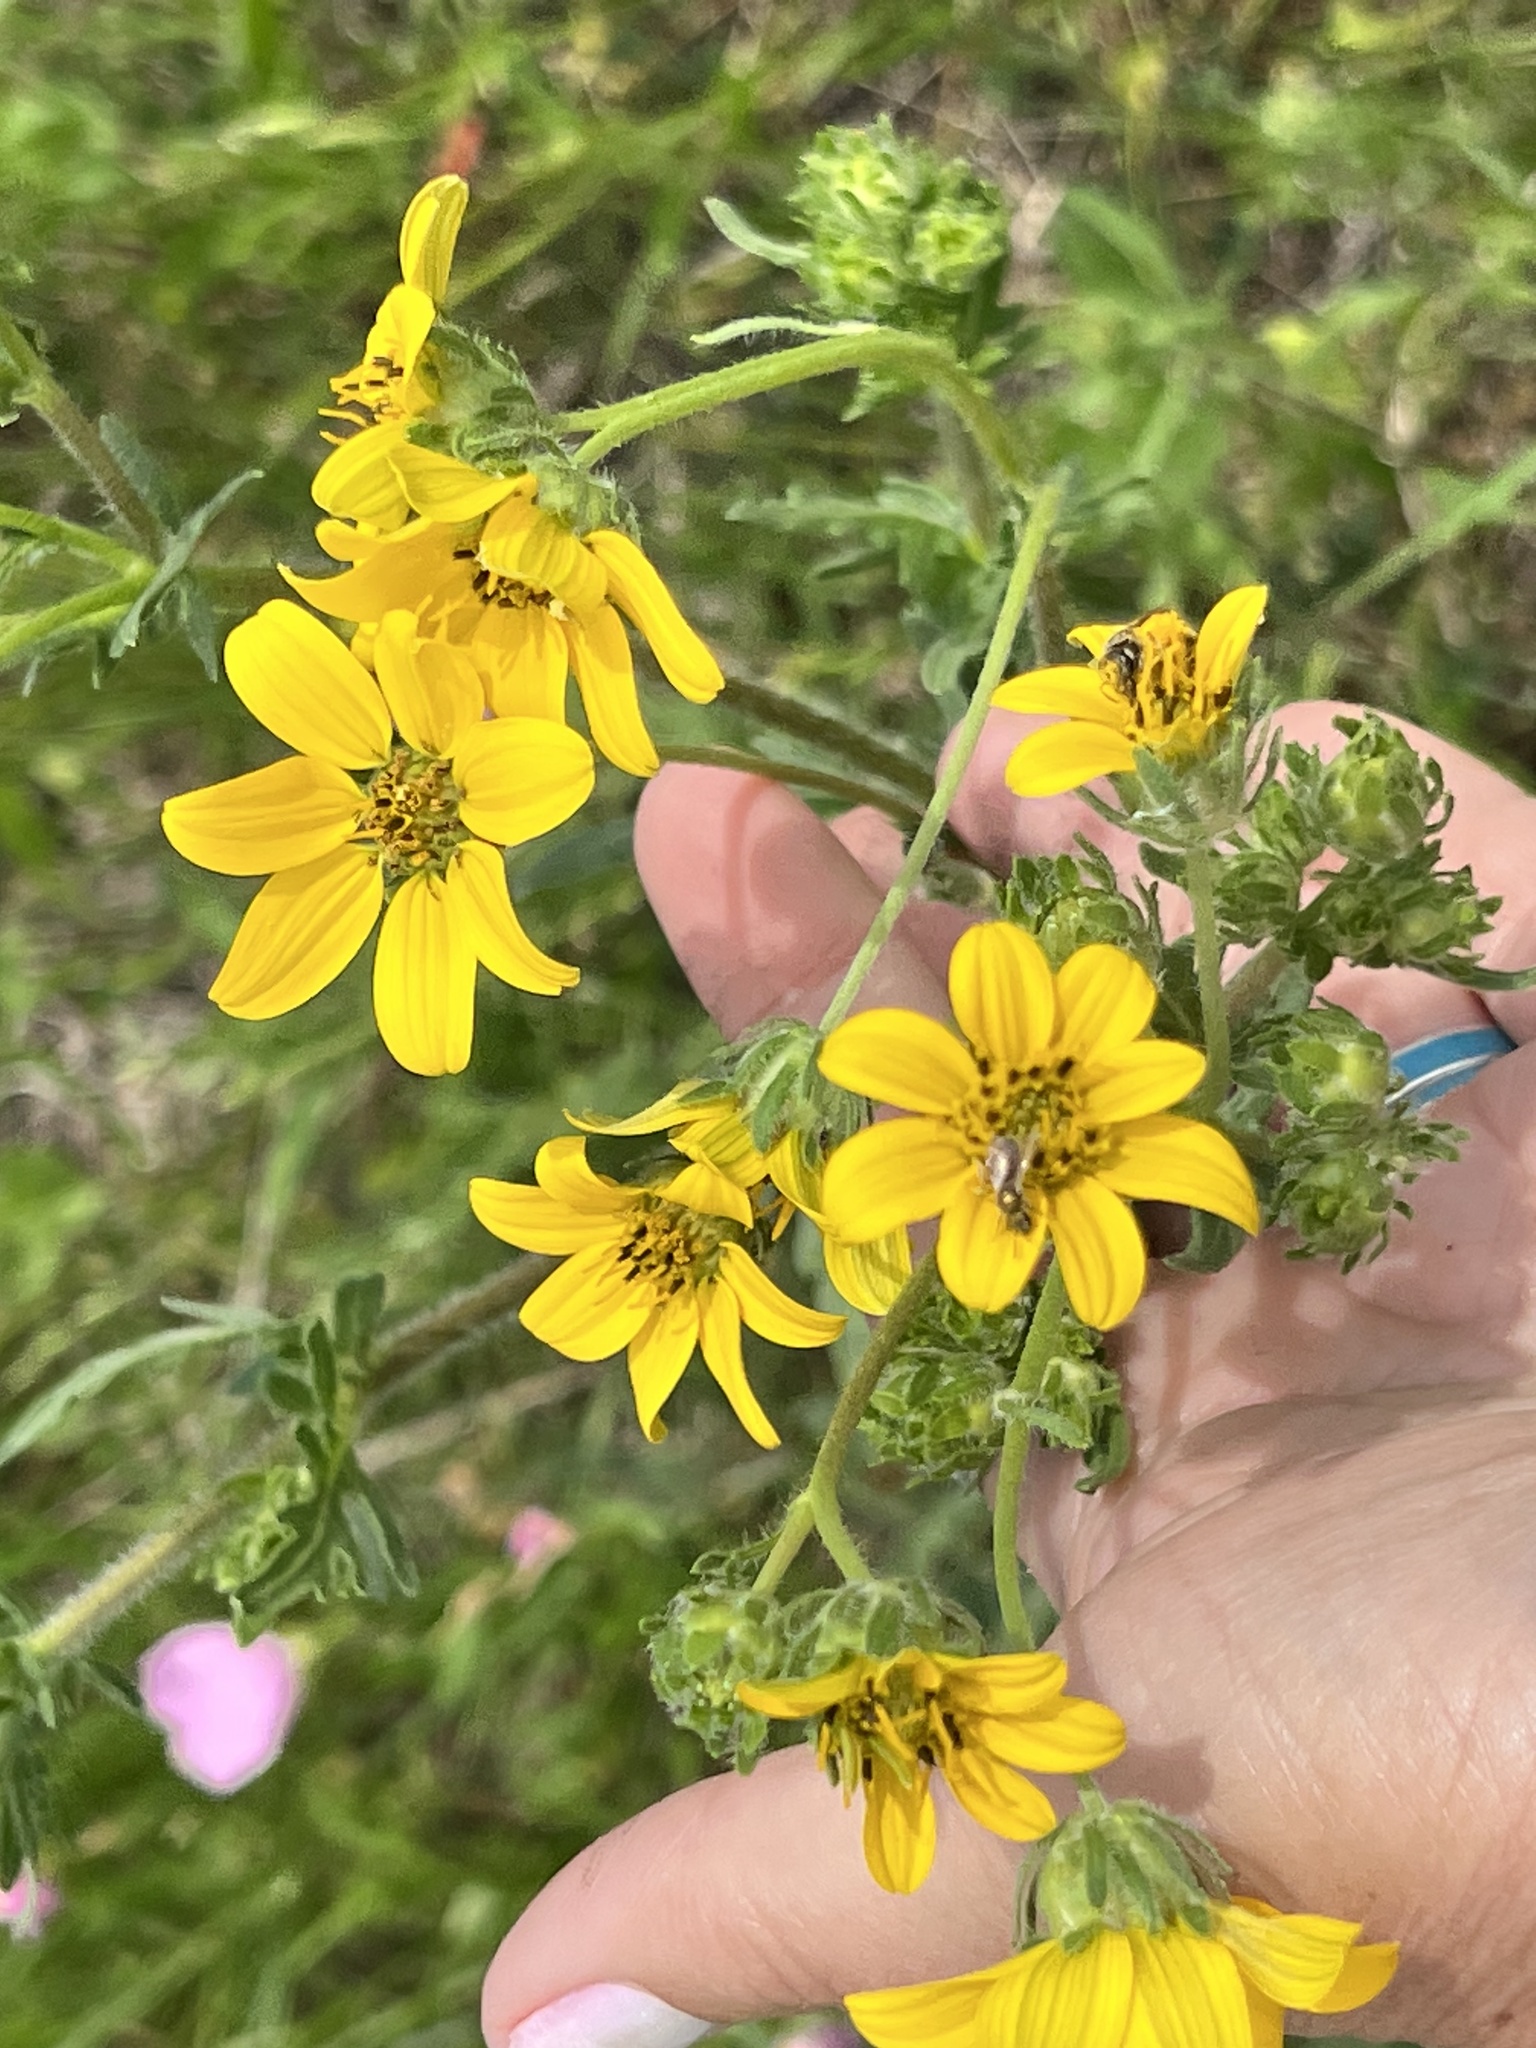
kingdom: Plantae
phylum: Tracheophyta
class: Magnoliopsida
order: Asterales
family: Asteraceae
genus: Engelmannia
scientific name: Engelmannia peristenia
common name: Engelmann's daisy
